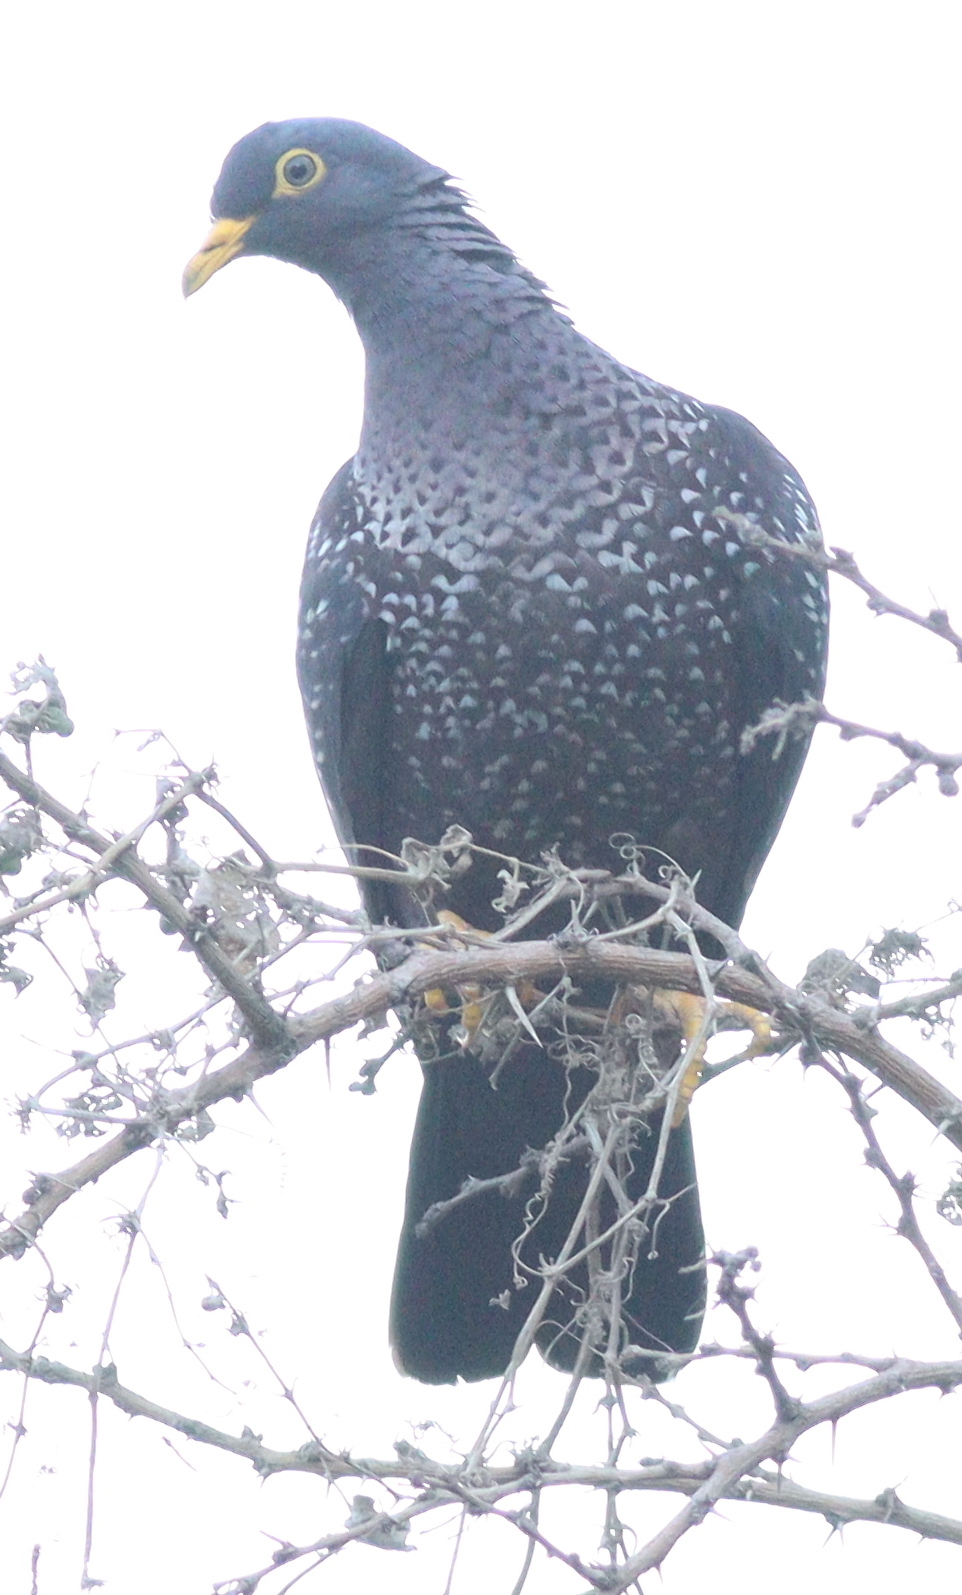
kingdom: Animalia
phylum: Chordata
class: Aves
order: Columbiformes
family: Columbidae
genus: Columba
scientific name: Columba arquatrix
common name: African olive pigeon
